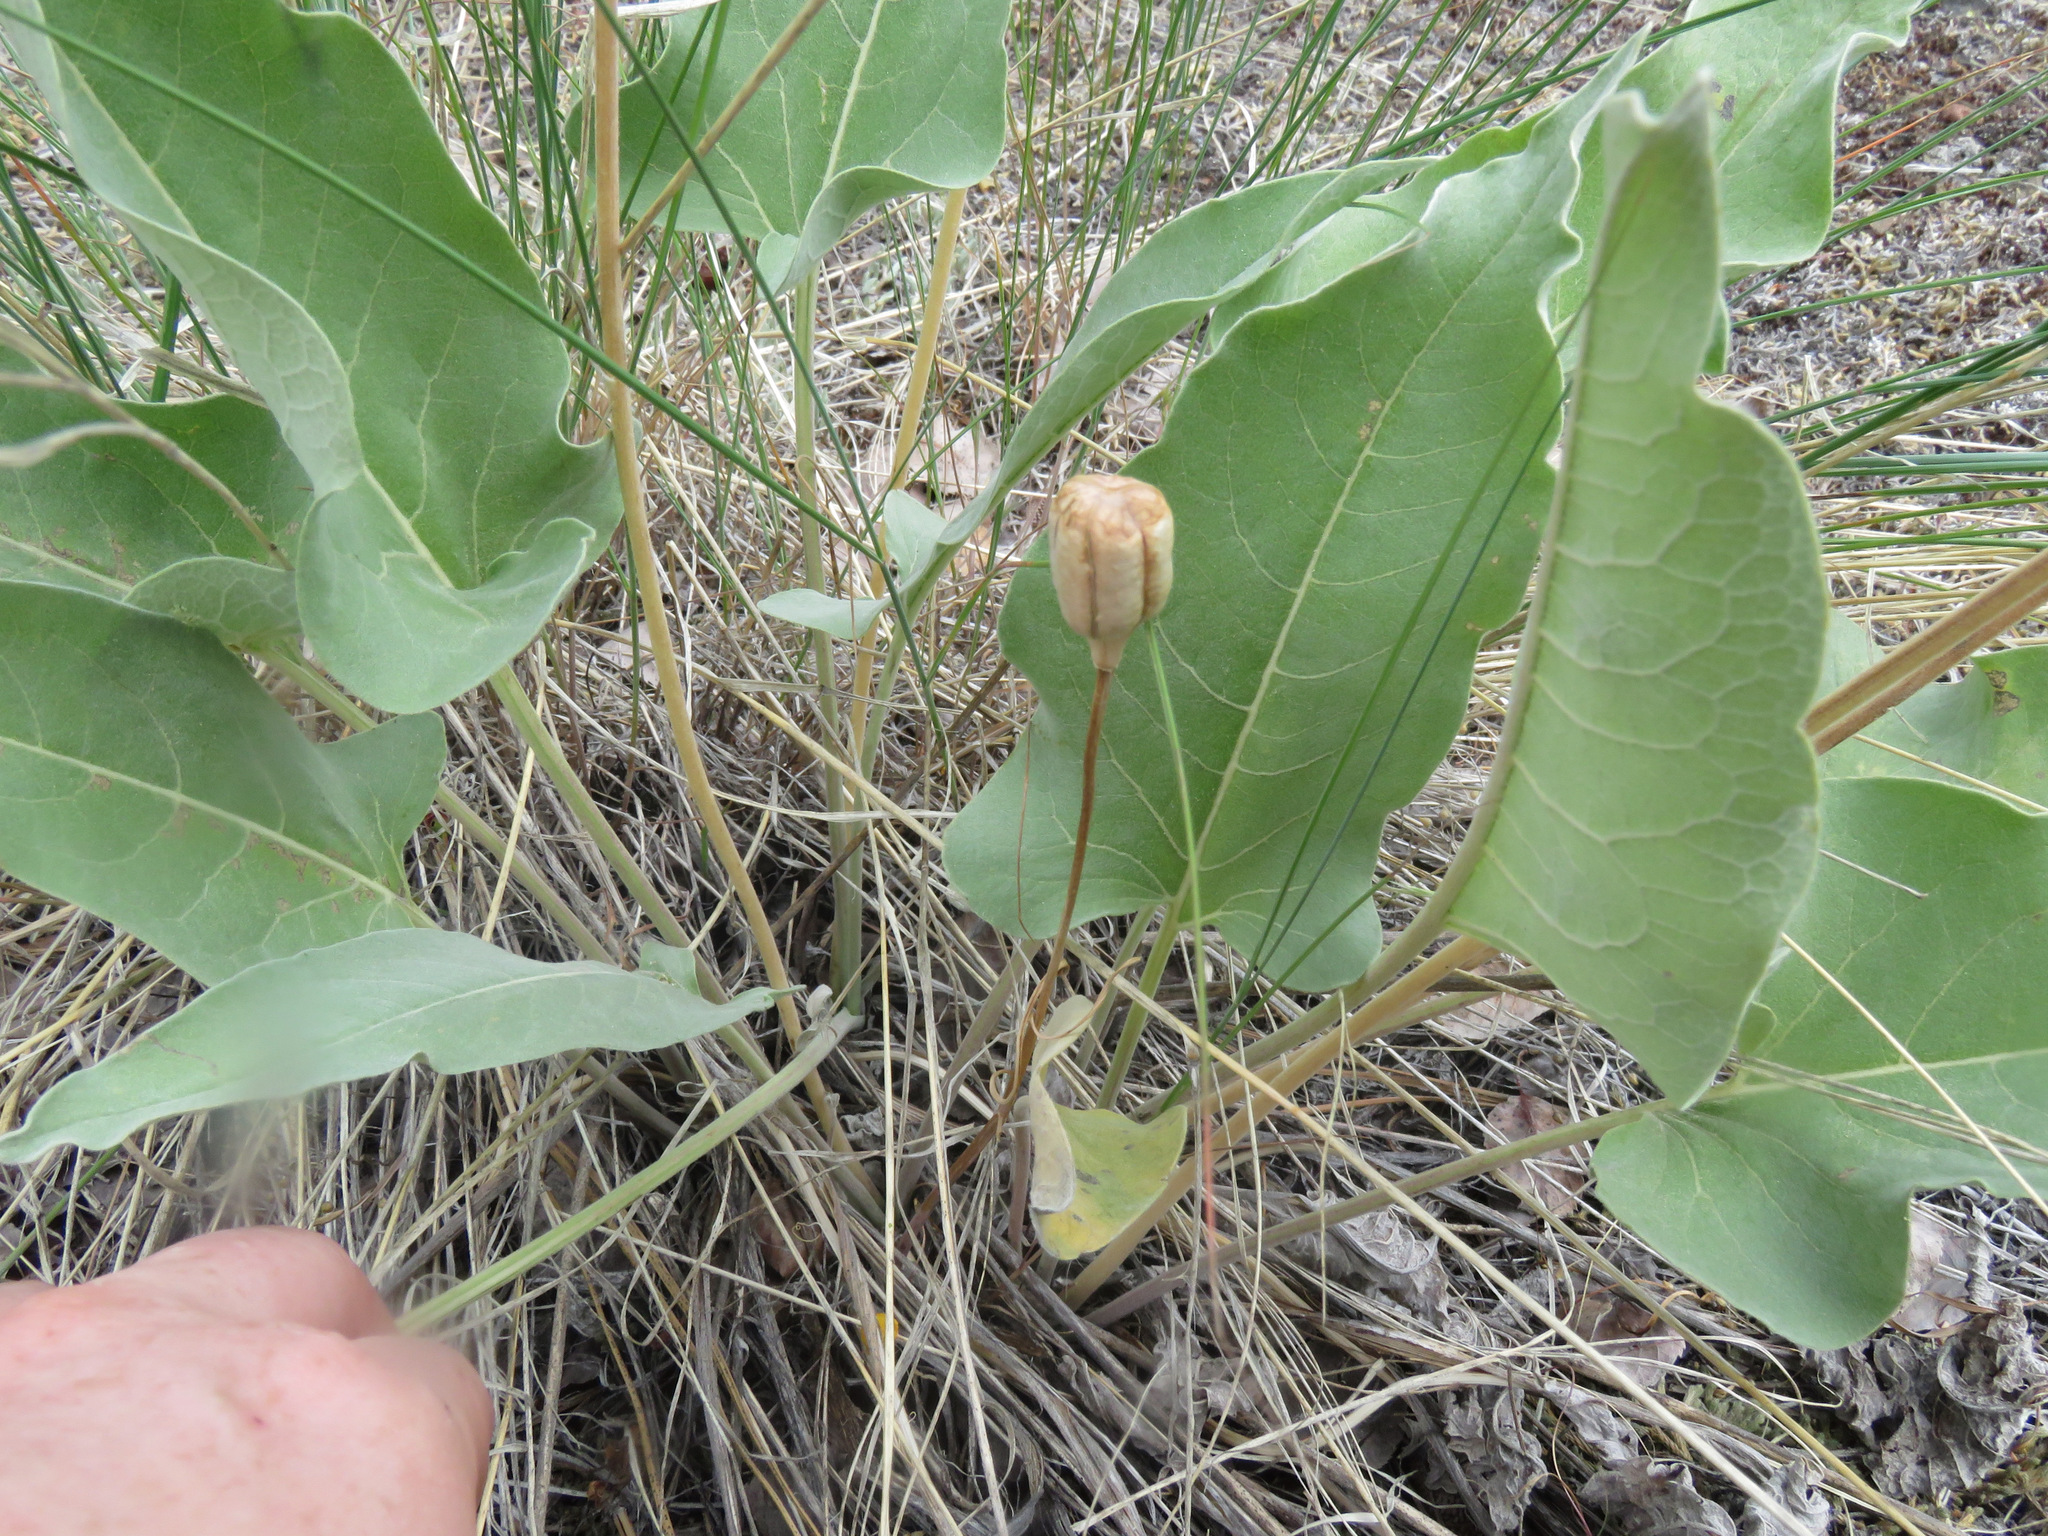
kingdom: Plantae
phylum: Tracheophyta
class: Liliopsida
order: Liliales
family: Liliaceae
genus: Fritillaria
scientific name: Fritillaria pudica
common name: Yellow fritillary
